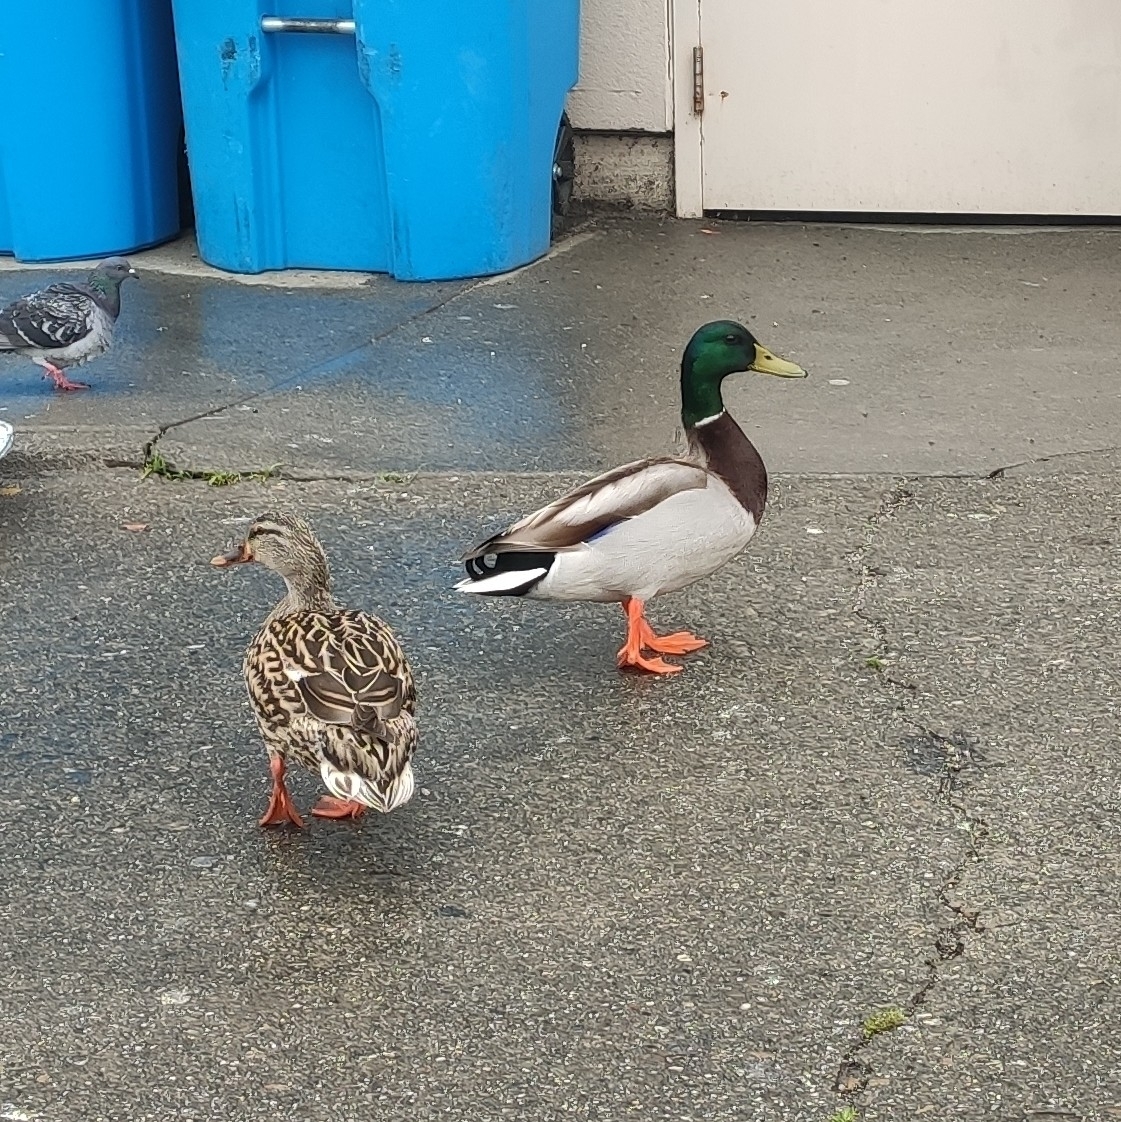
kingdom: Animalia
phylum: Chordata
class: Aves
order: Anseriformes
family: Anatidae
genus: Anas
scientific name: Anas platyrhynchos
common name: Mallard
